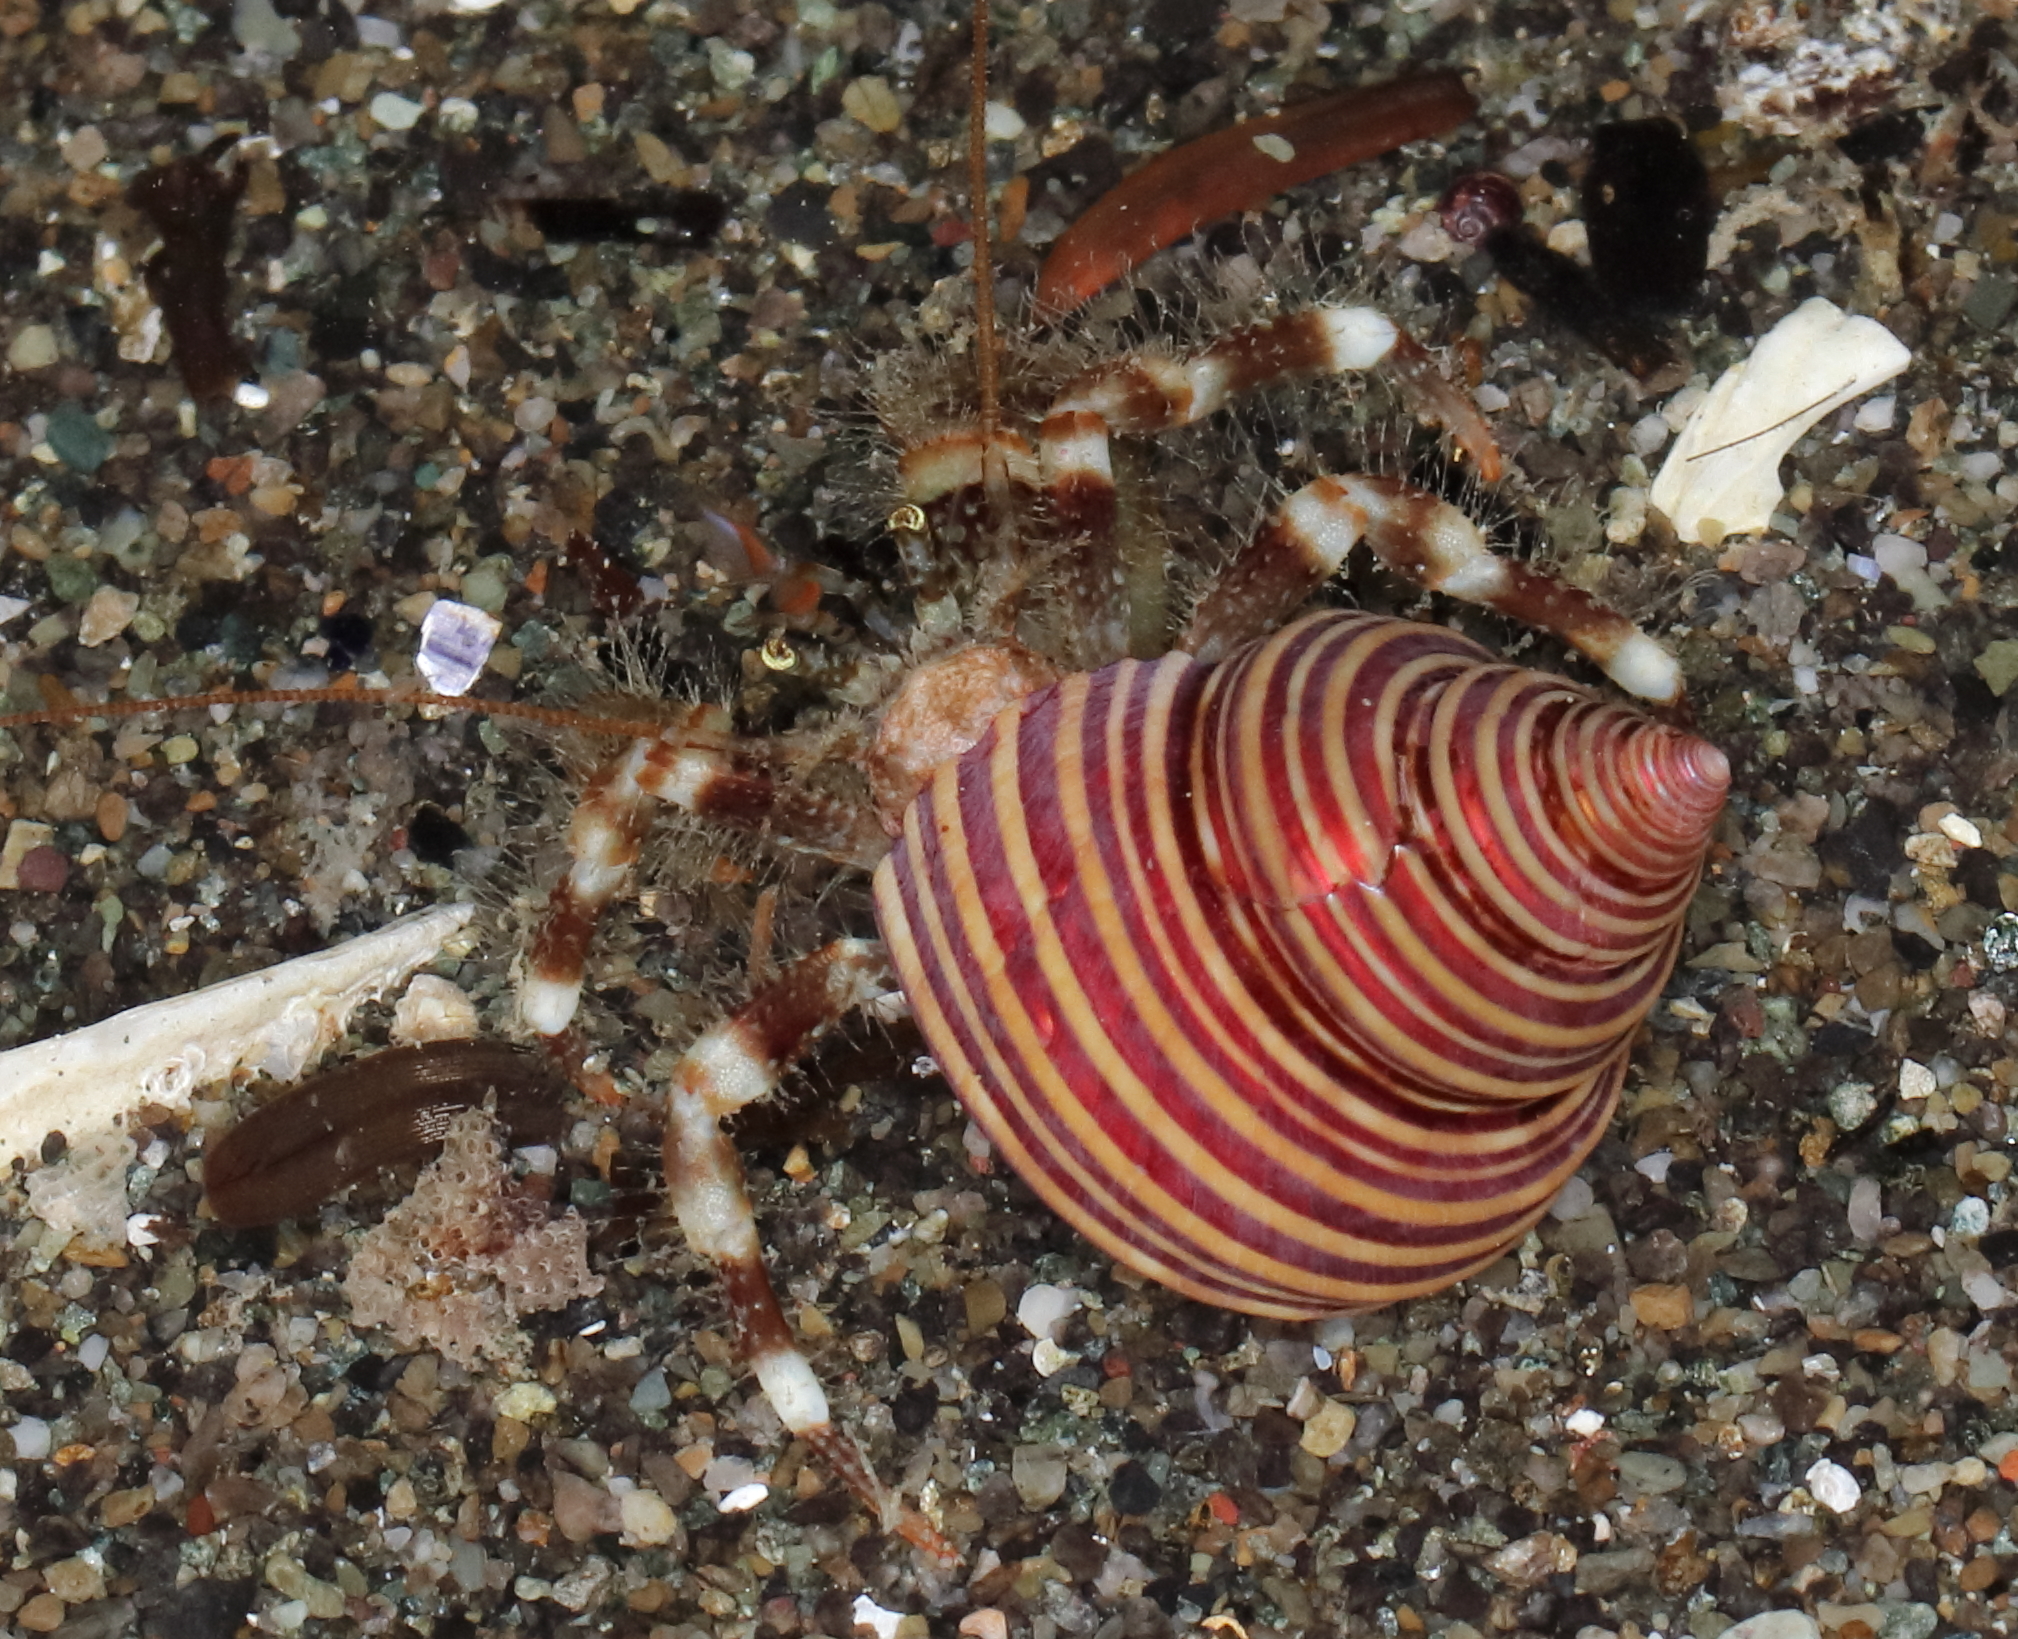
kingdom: Animalia
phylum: Arthropoda
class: Malacostraca
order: Decapoda
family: Paguridae
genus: Pagurus
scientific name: Pagurus caurinus
